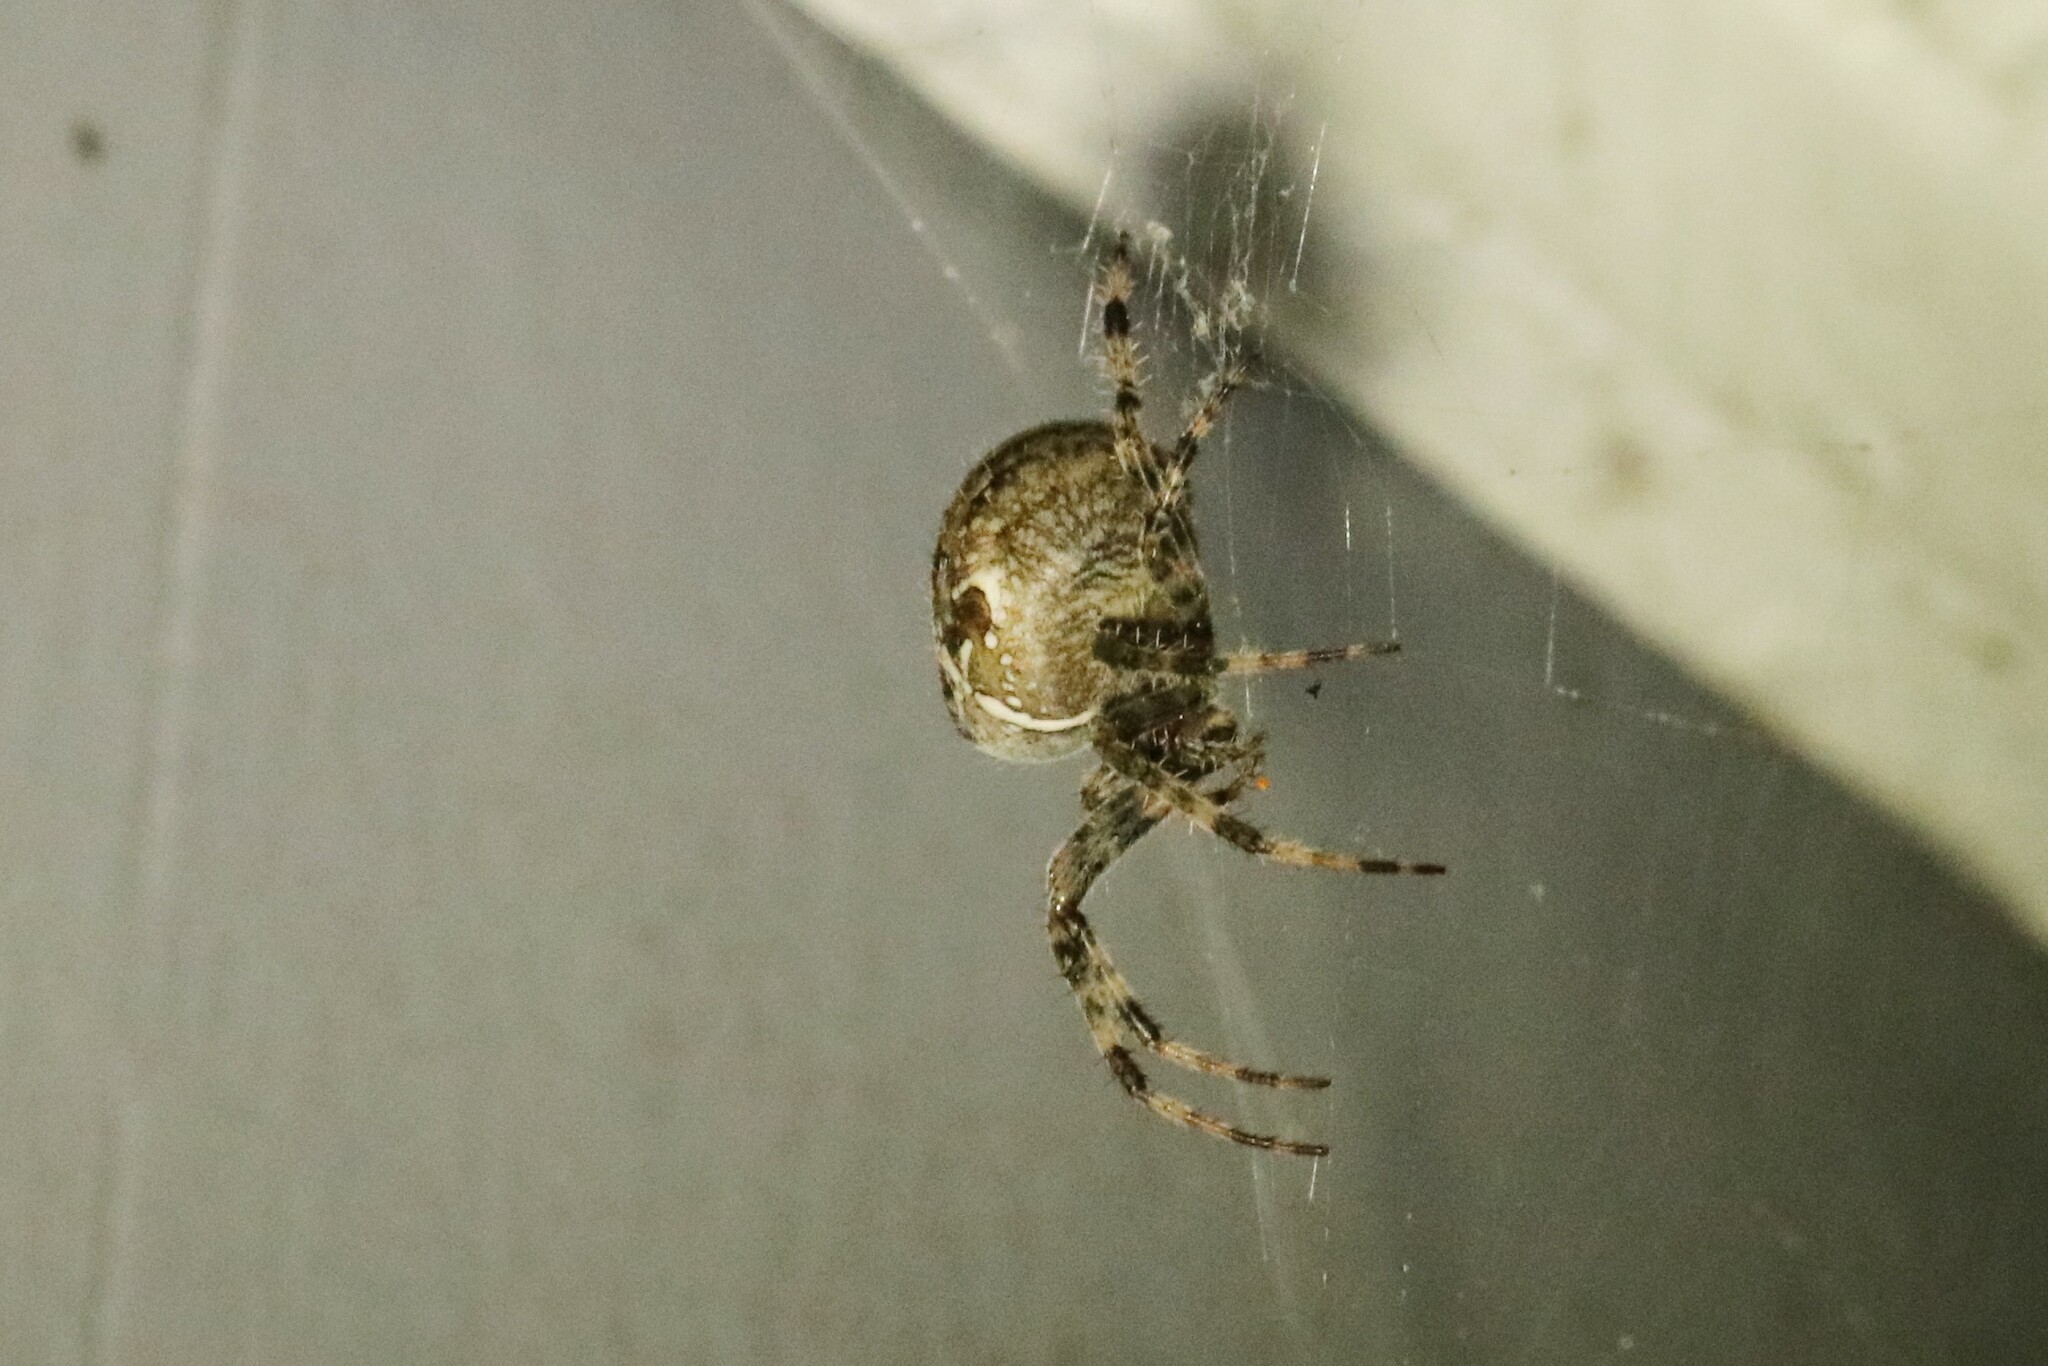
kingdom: Animalia
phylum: Arthropoda
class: Arachnida
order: Araneae
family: Araneidae
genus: Araneus
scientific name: Araneus diadematus
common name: Cross orbweaver
